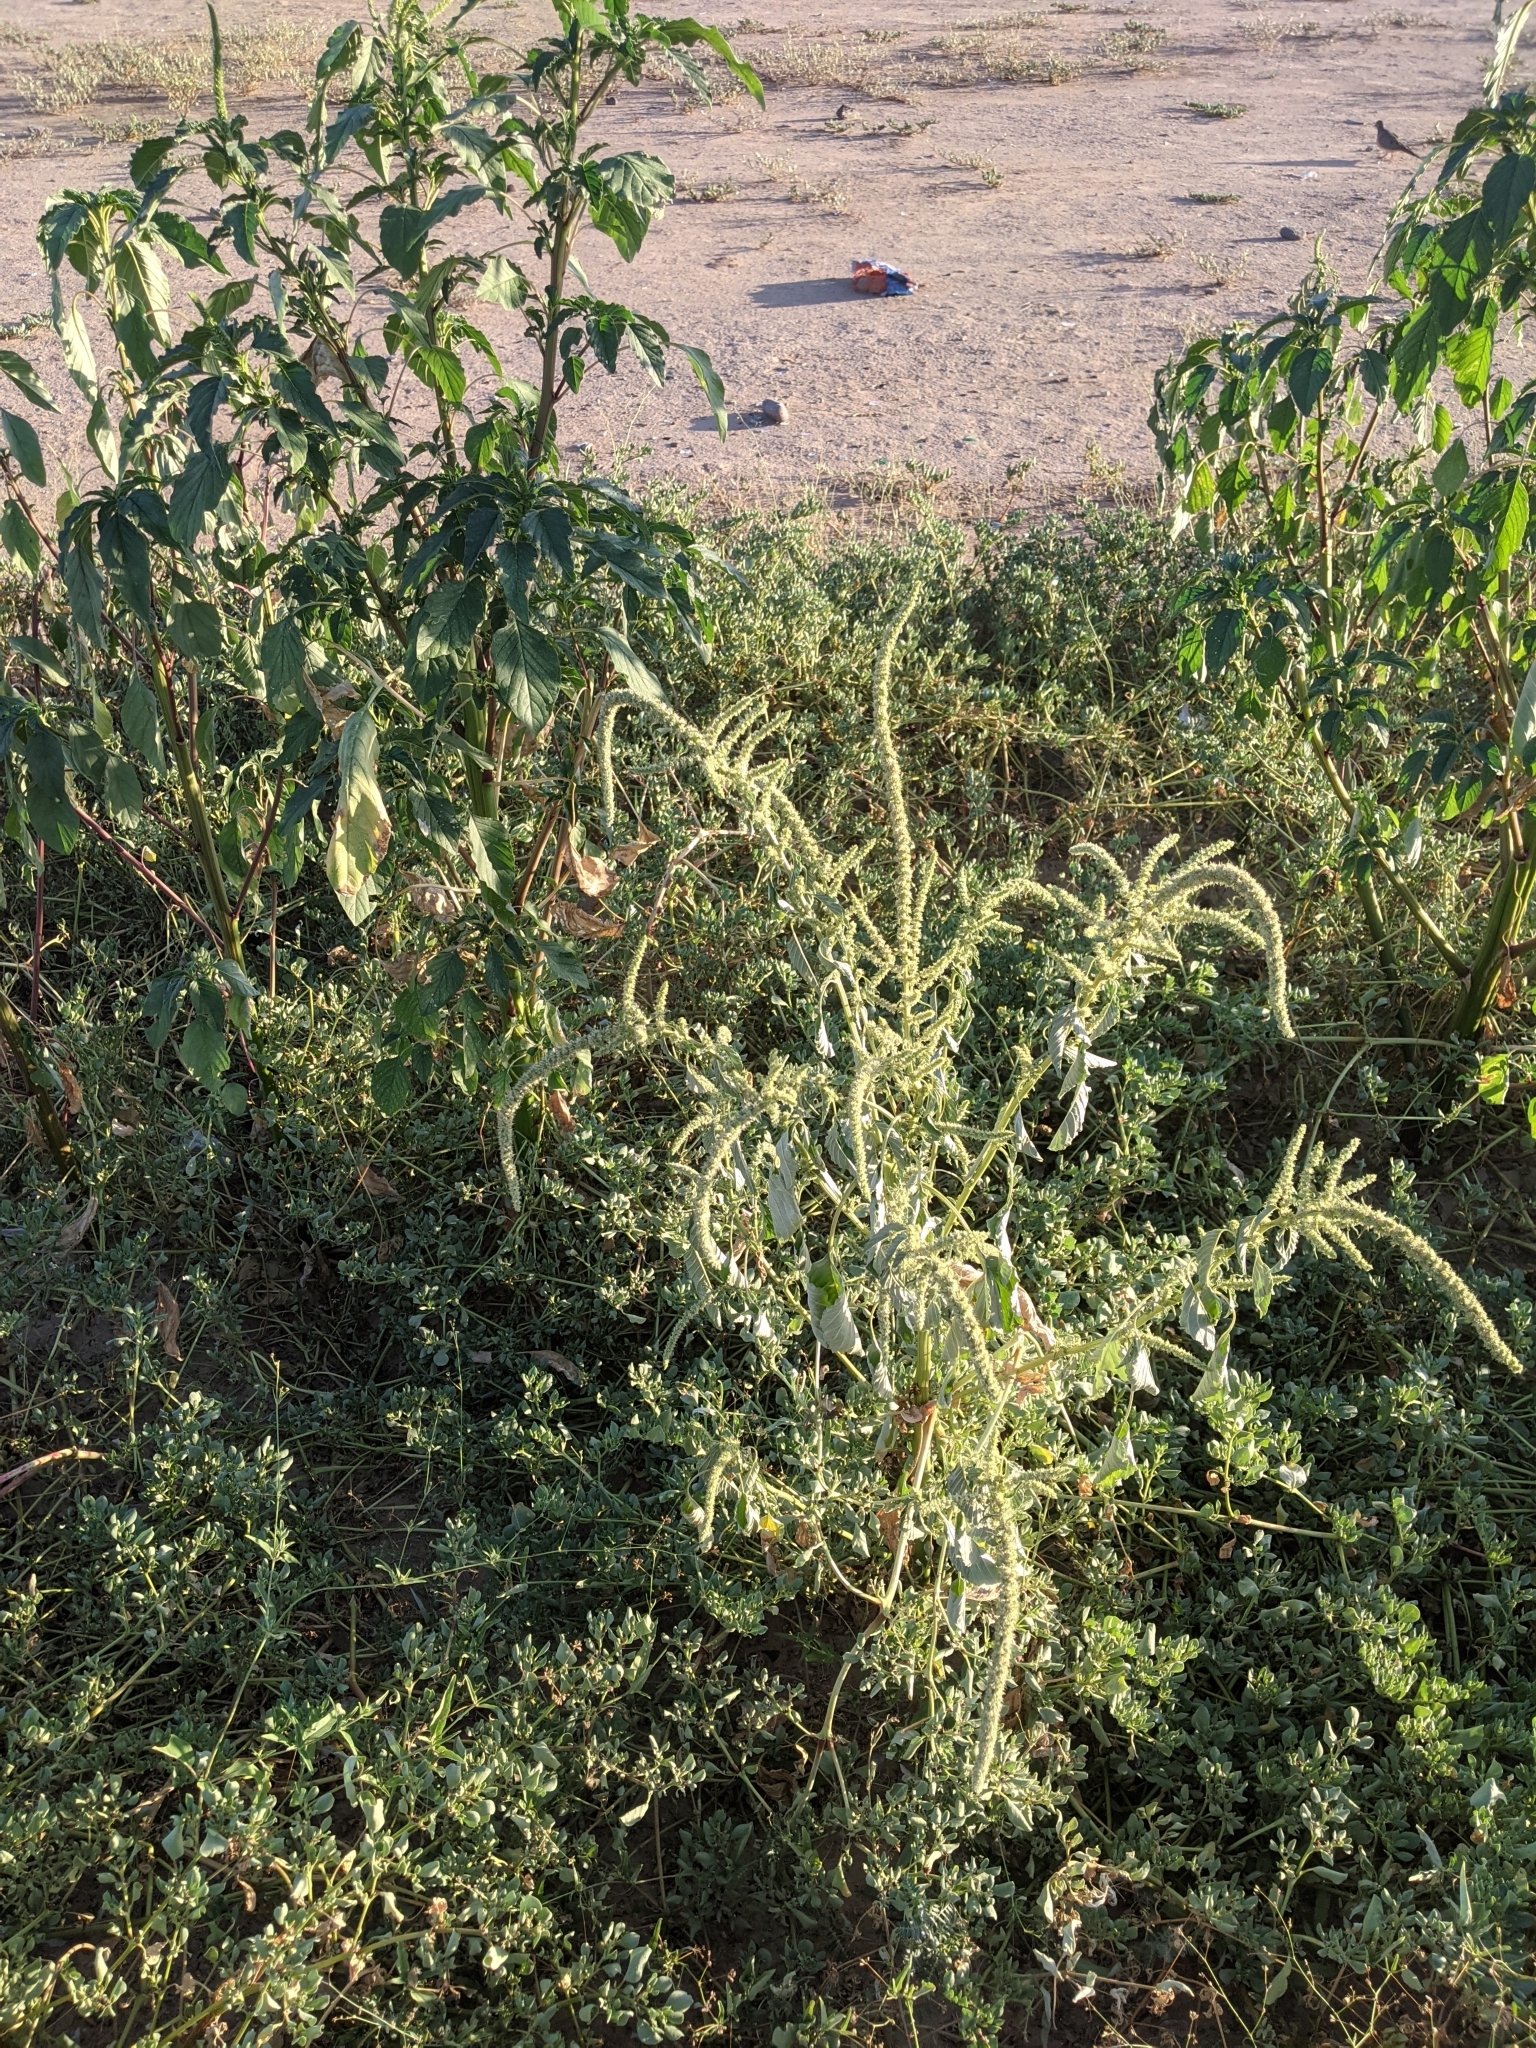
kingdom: Plantae
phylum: Tracheophyta
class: Magnoliopsida
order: Caryophyllales
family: Amaranthaceae
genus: Amaranthus
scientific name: Amaranthus palmeri
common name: Dioecious amaranth
